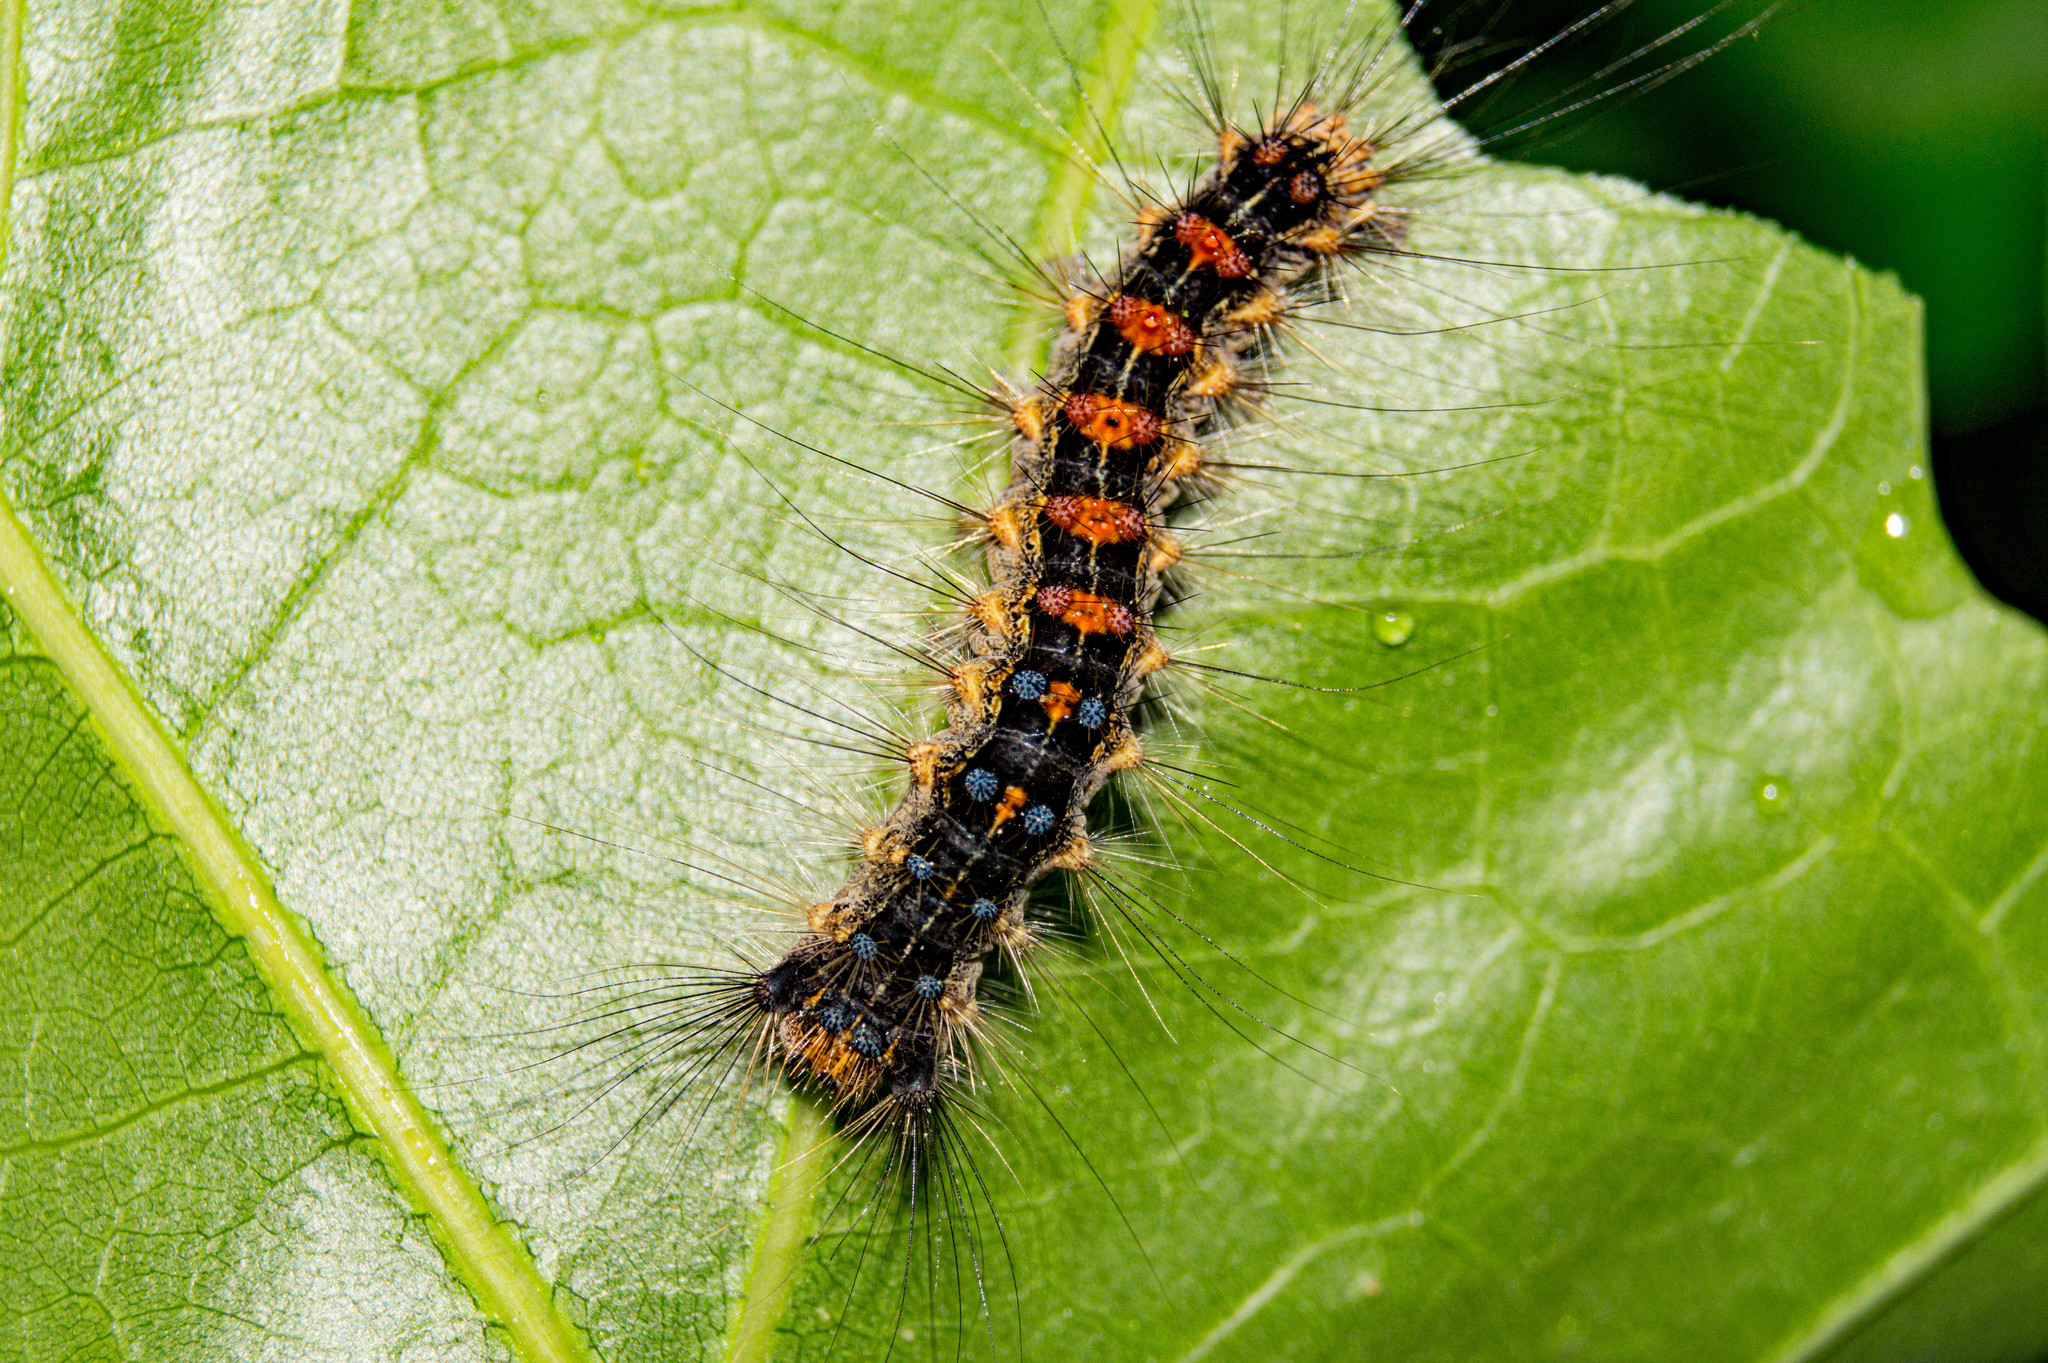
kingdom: Animalia
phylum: Arthropoda
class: Insecta
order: Lepidoptera
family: Erebidae
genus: Lymantria
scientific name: Lymantria dispar
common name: Gypsy moth
